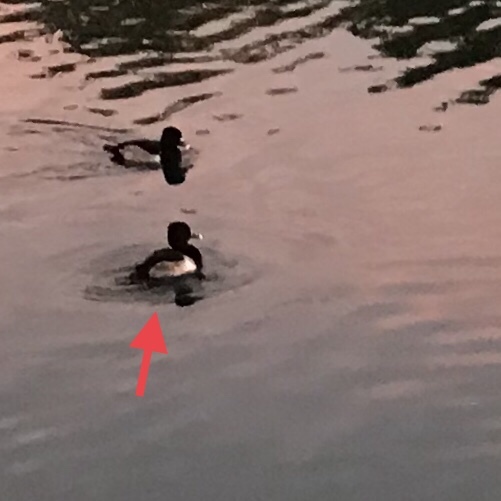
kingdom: Animalia
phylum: Chordata
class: Aves
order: Anseriformes
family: Anatidae
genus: Aythya
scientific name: Aythya collaris
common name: Ring-necked duck
